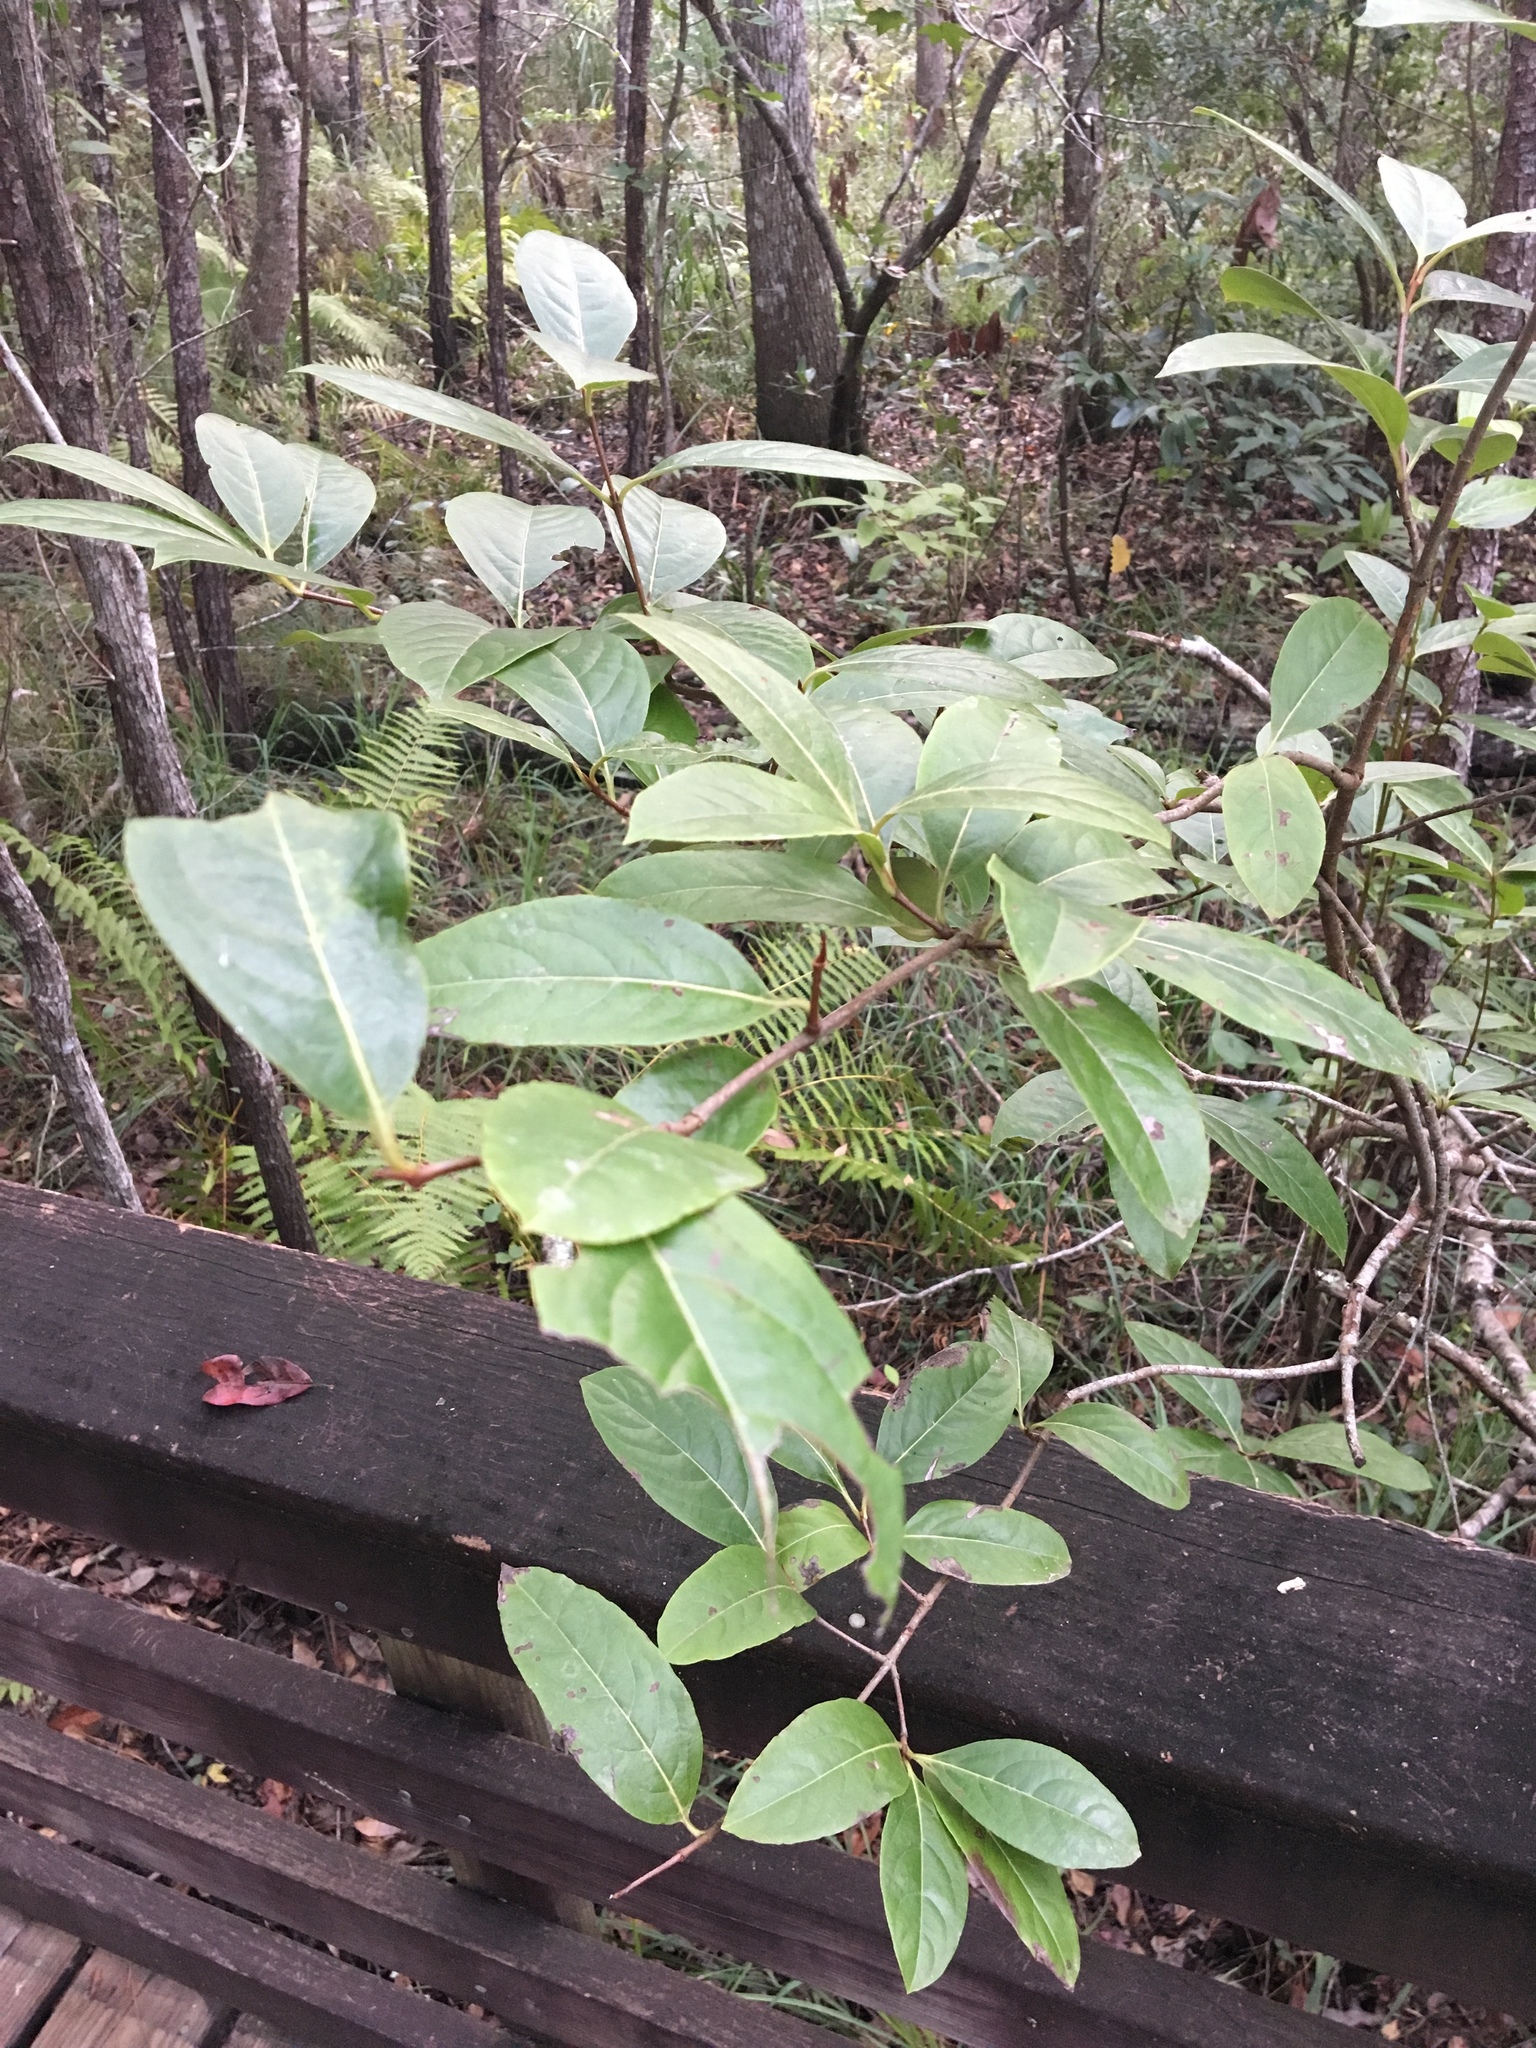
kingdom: Plantae
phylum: Tracheophyta
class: Magnoliopsida
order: Dipsacales
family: Viburnaceae
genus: Viburnum
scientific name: Viburnum nudum
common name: Possum haw
